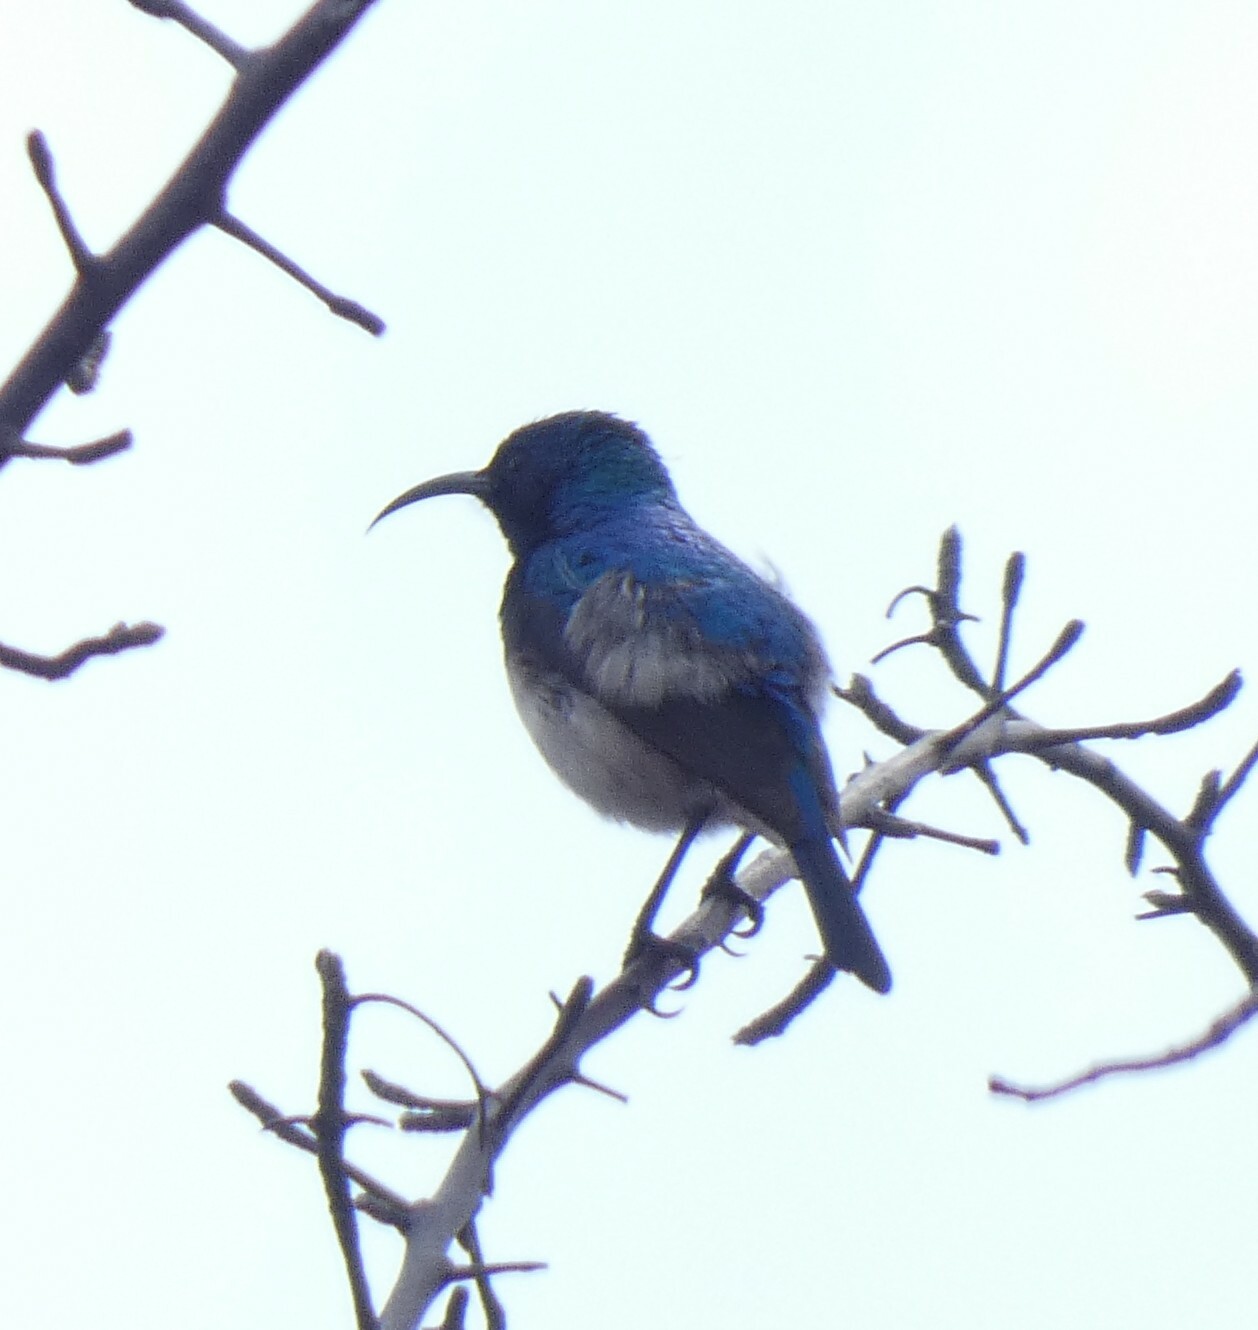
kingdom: Animalia
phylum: Chordata
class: Aves
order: Passeriformes
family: Nectariniidae
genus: Cinnyris
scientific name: Cinnyris talatala
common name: White-bellied sunbird
